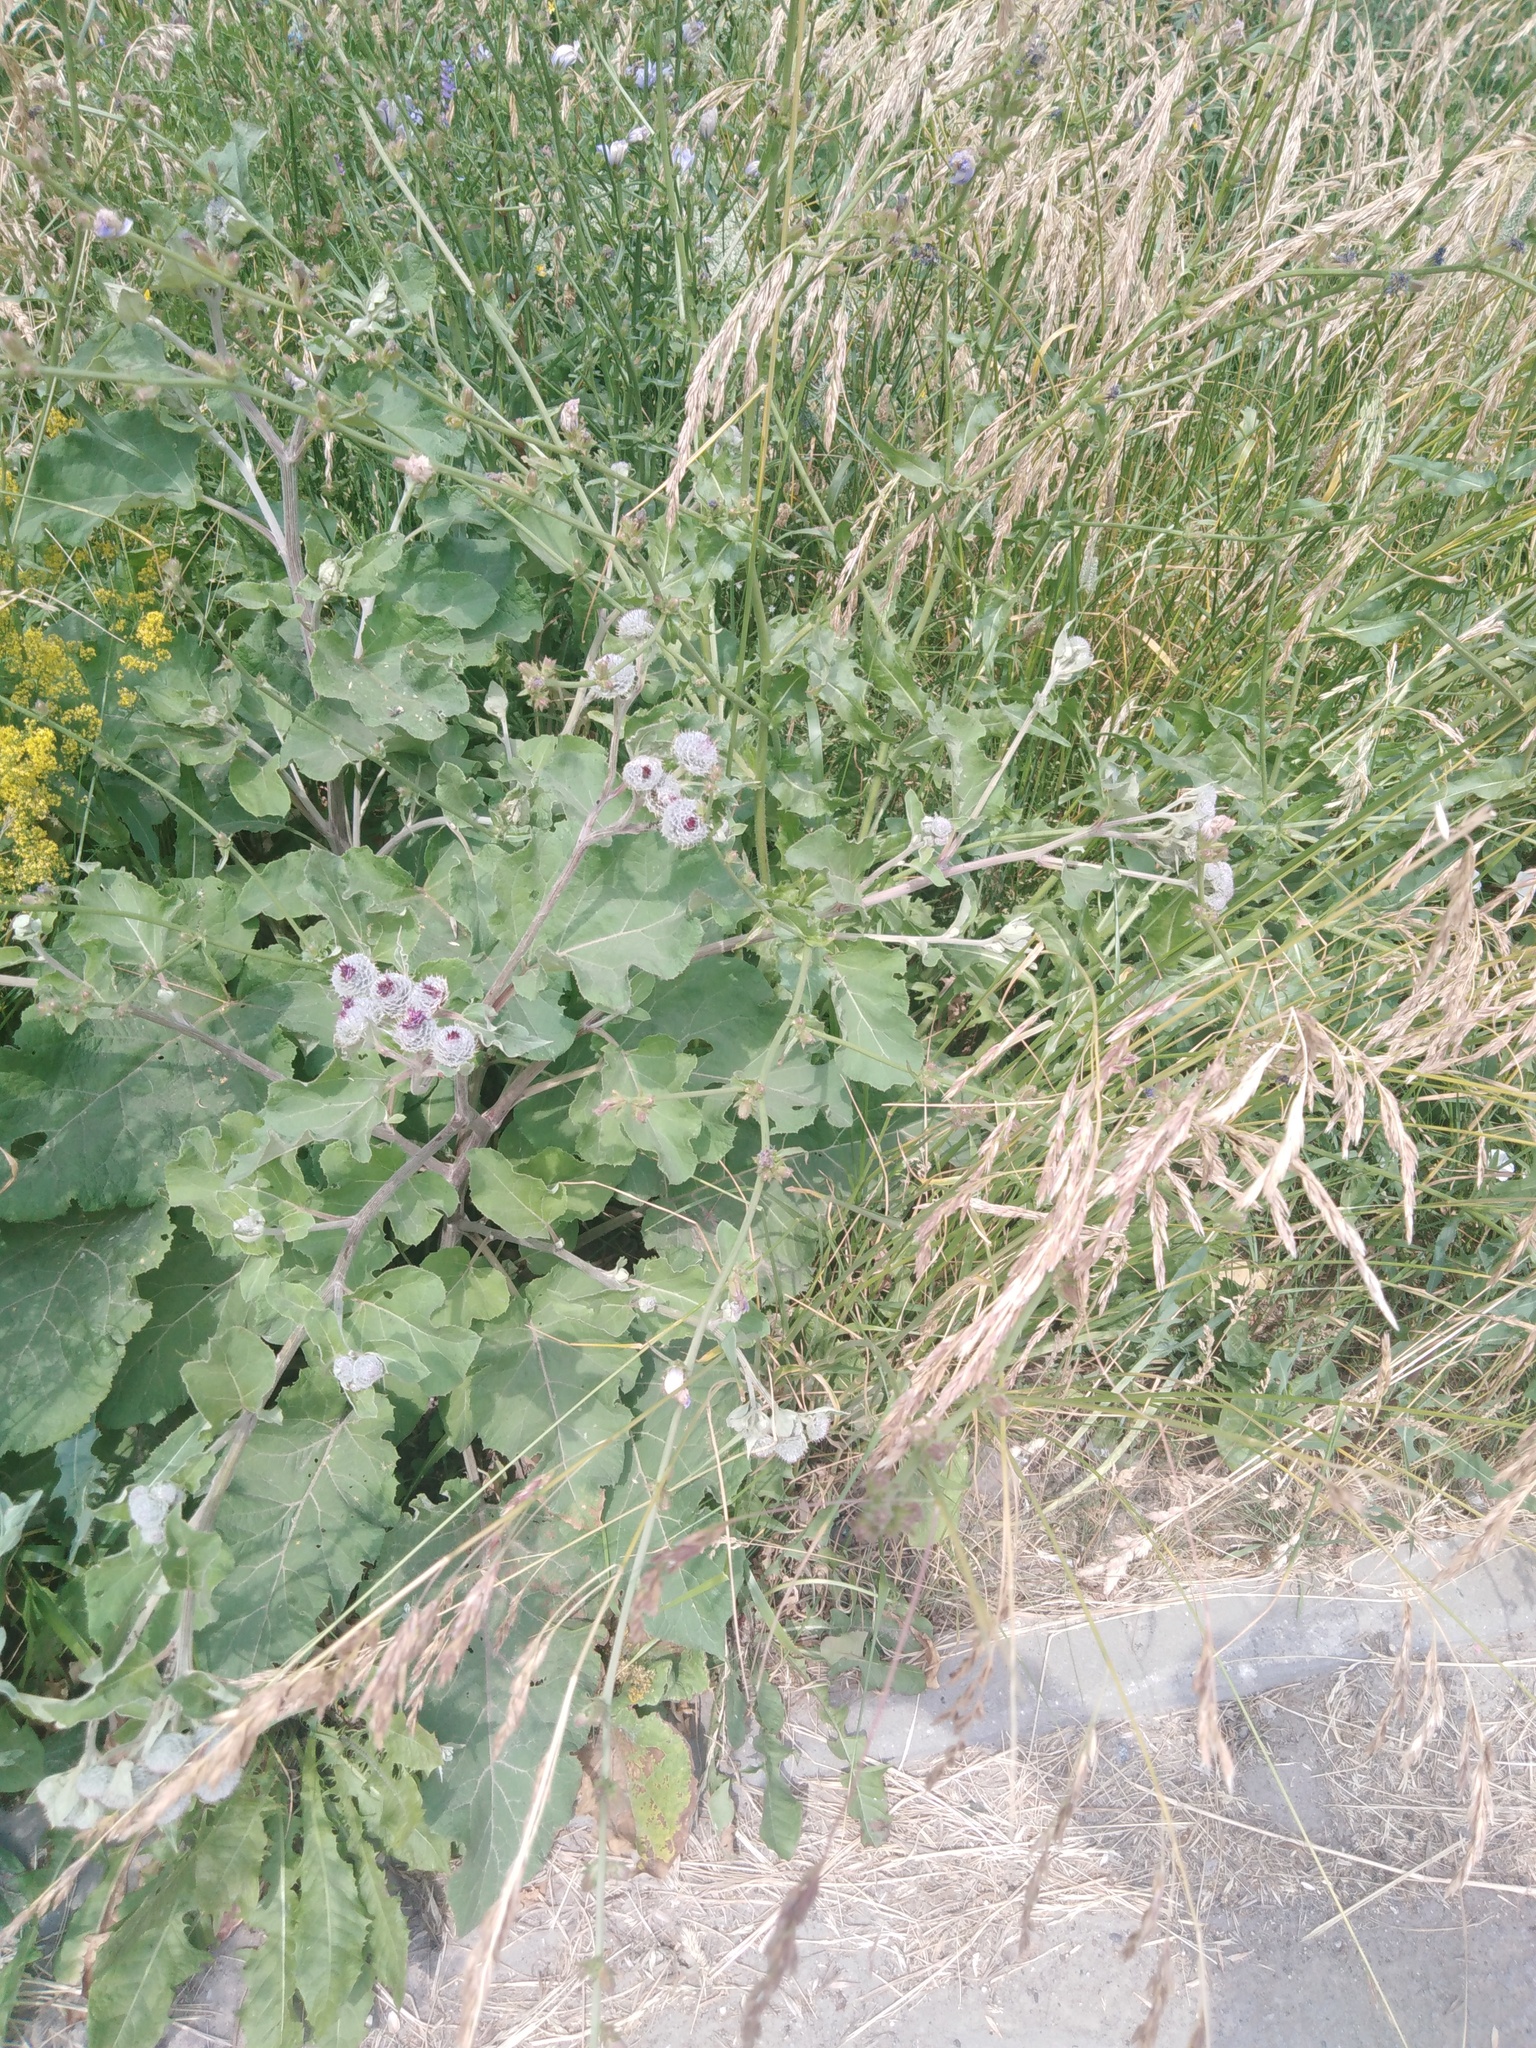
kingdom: Plantae
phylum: Tracheophyta
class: Magnoliopsida
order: Asterales
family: Asteraceae
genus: Arctium
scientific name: Arctium tomentosum
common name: Woolly burdock
